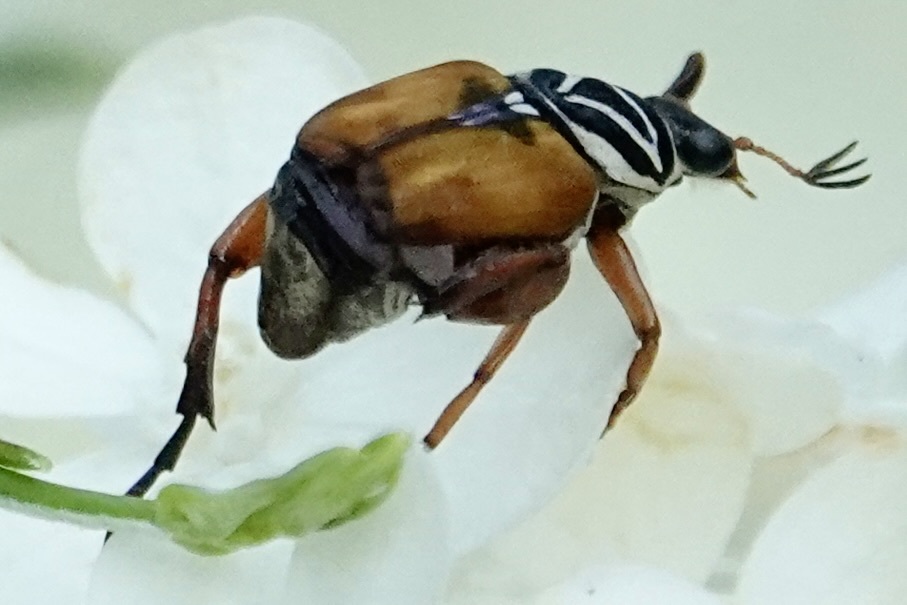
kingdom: Animalia
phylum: Arthropoda
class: Insecta
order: Coleoptera
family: Scarabaeidae
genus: Trigonopeltastes
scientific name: Trigonopeltastes delta
